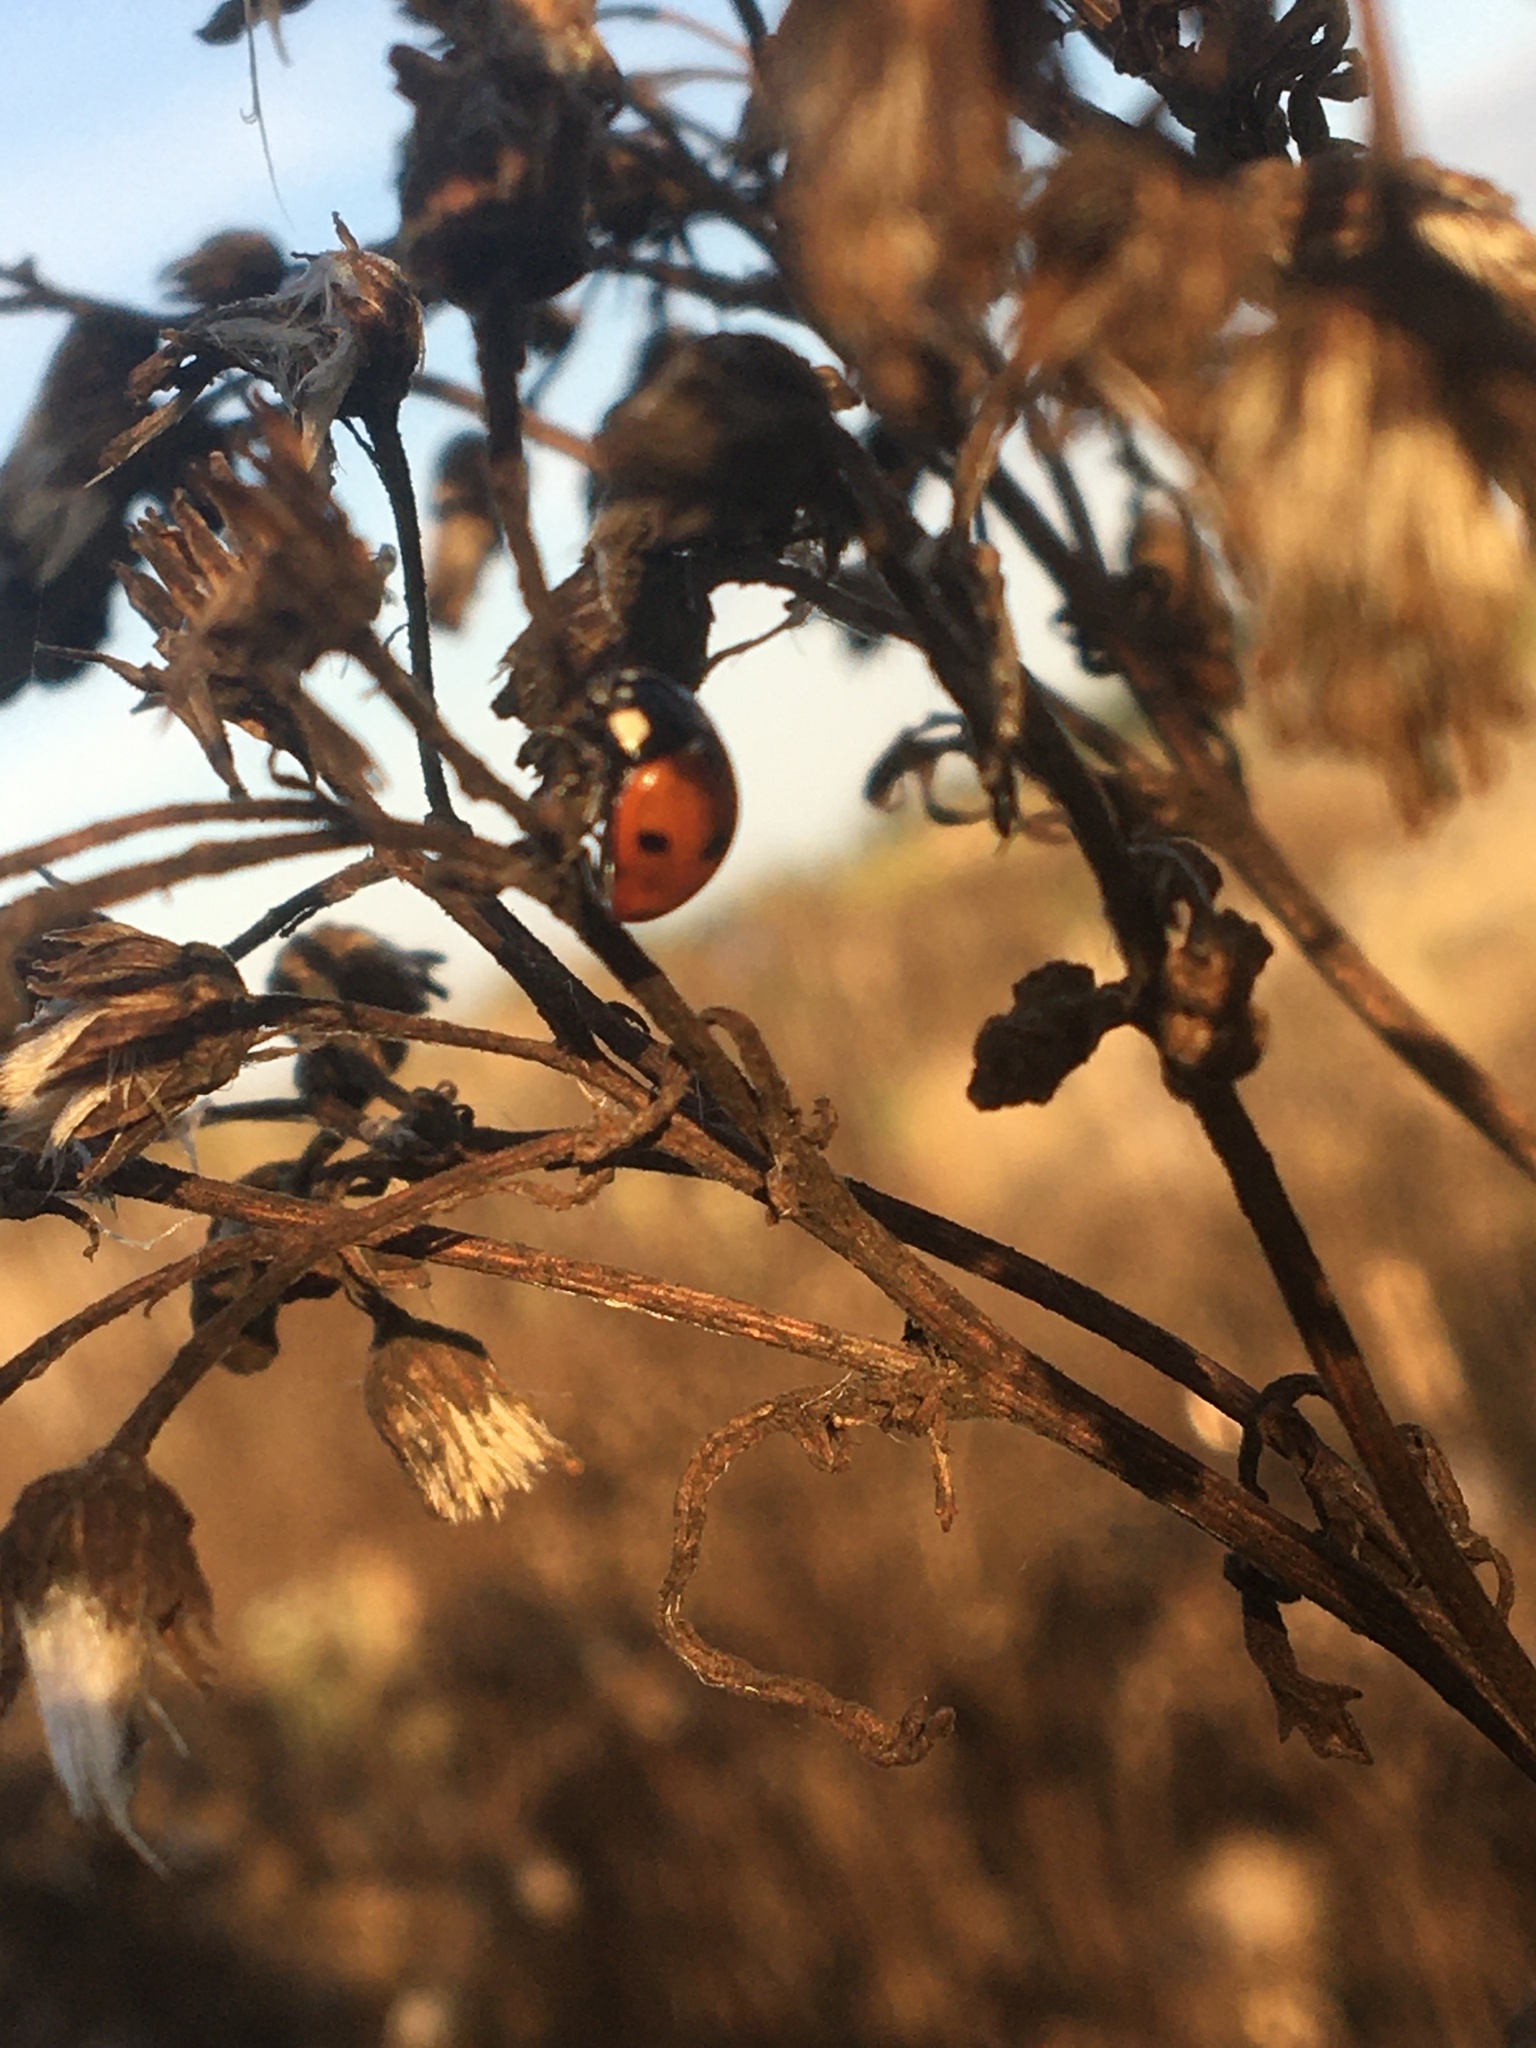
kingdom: Animalia
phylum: Arthropoda
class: Insecta
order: Coleoptera
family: Coccinellidae
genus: Coccinella
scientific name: Coccinella septempunctata
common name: Sevenspotted lady beetle
